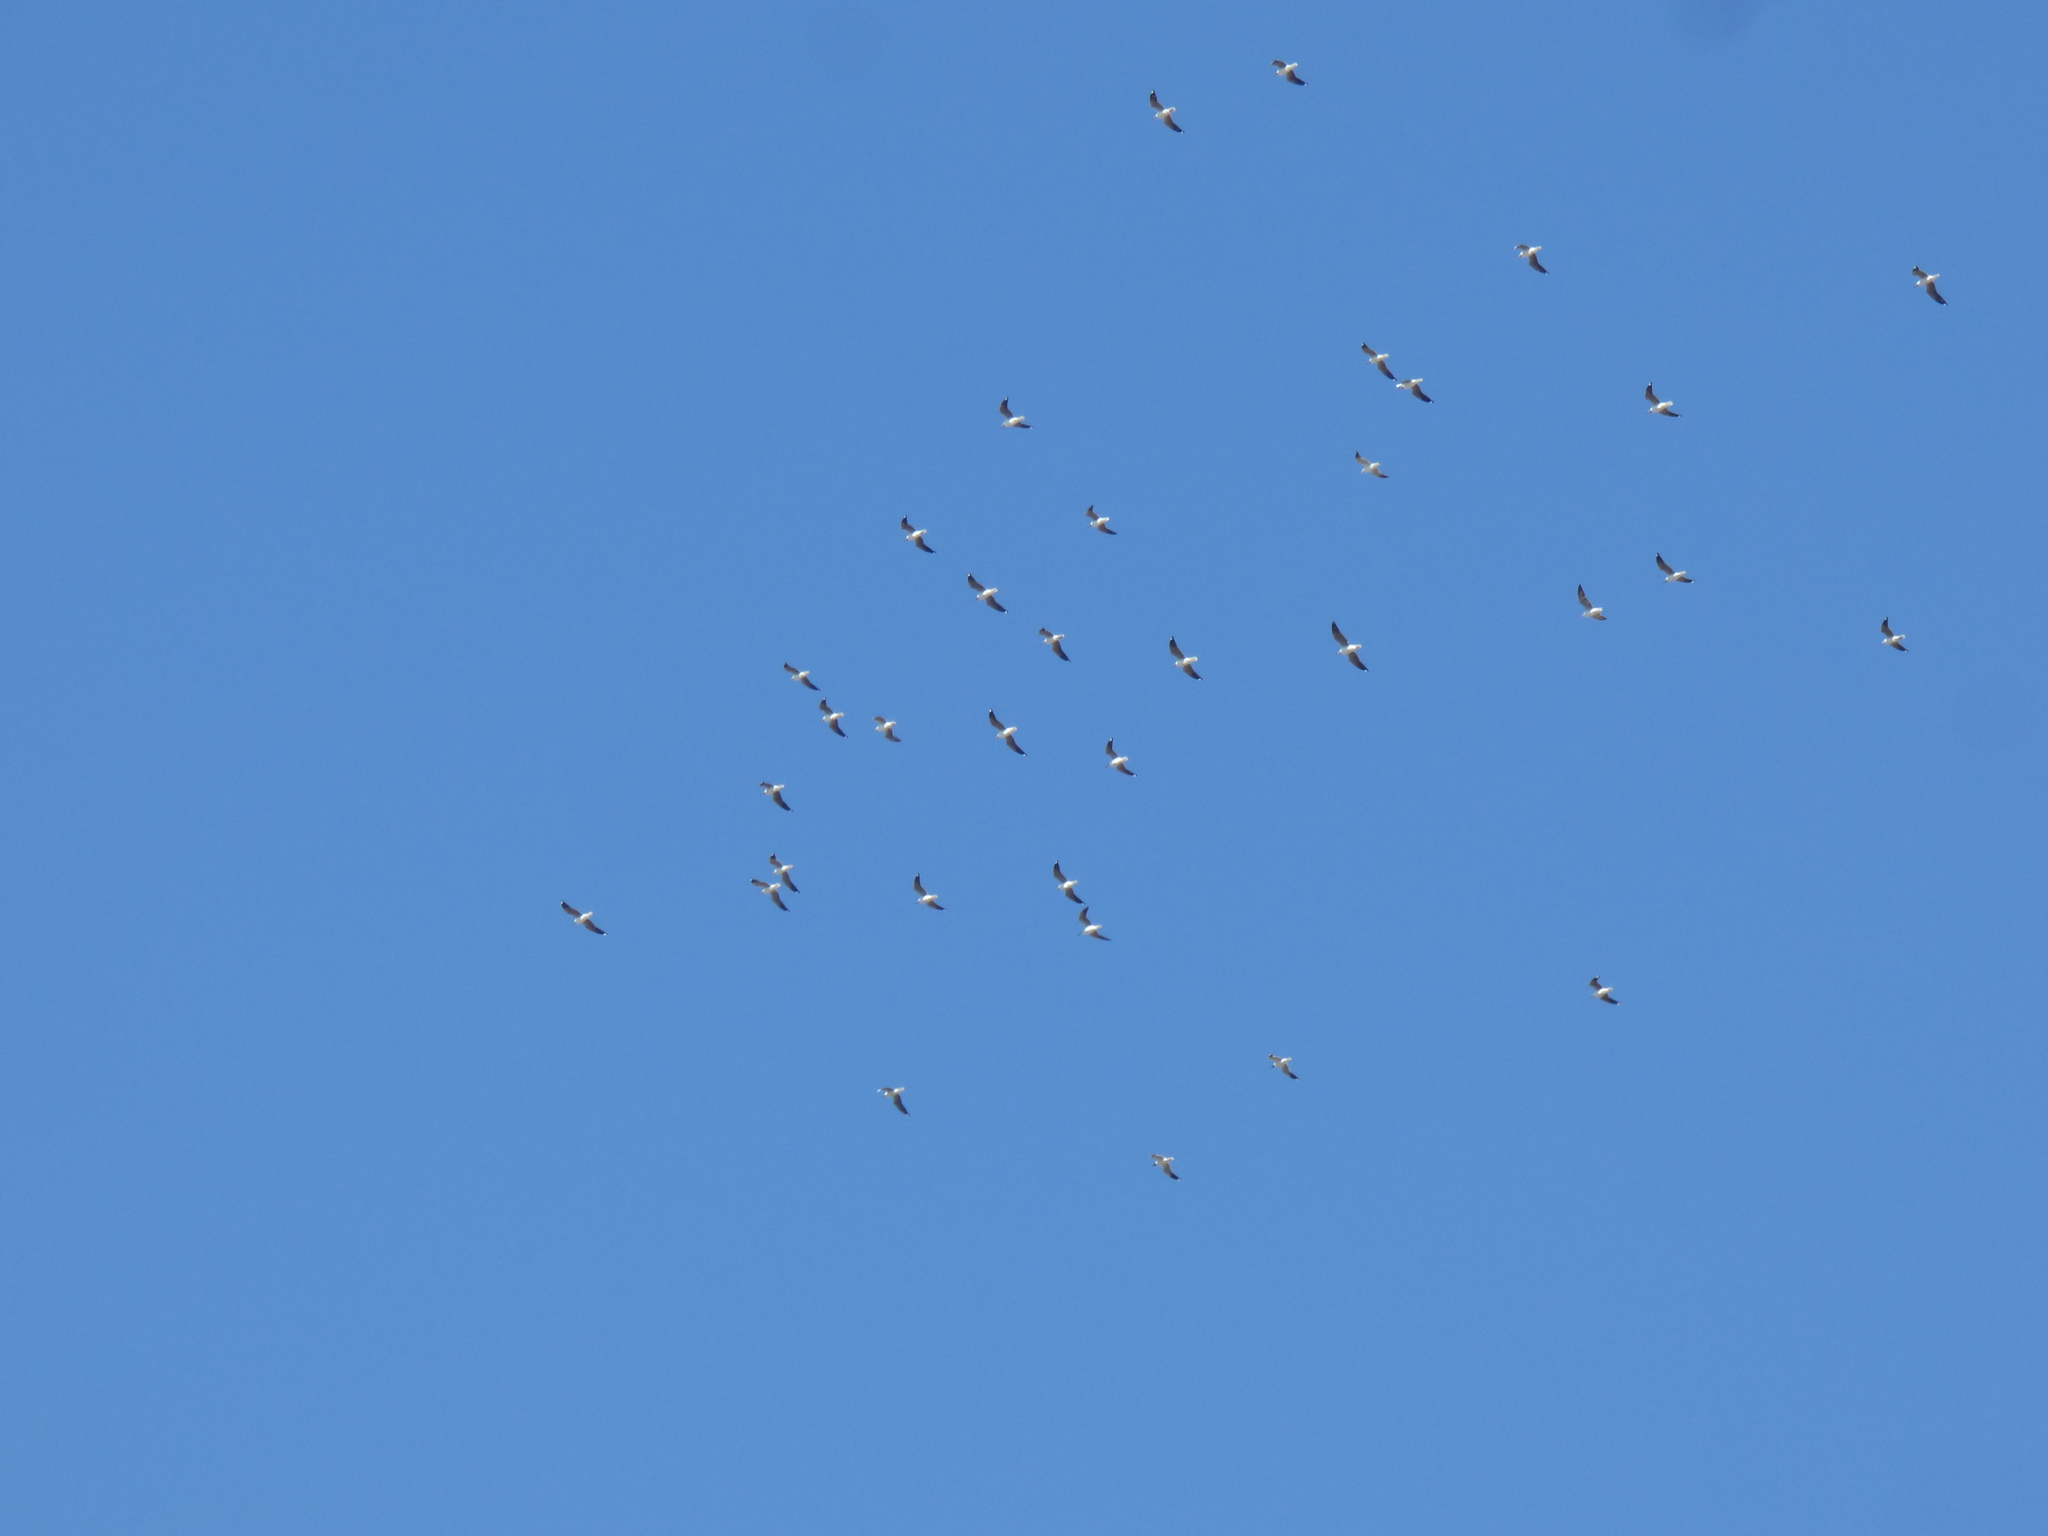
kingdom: Animalia
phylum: Chordata
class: Aves
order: Charadriiformes
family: Laridae
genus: Chroicocephalus
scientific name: Chroicocephalus cirrocephalus
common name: Grey-headed gull
